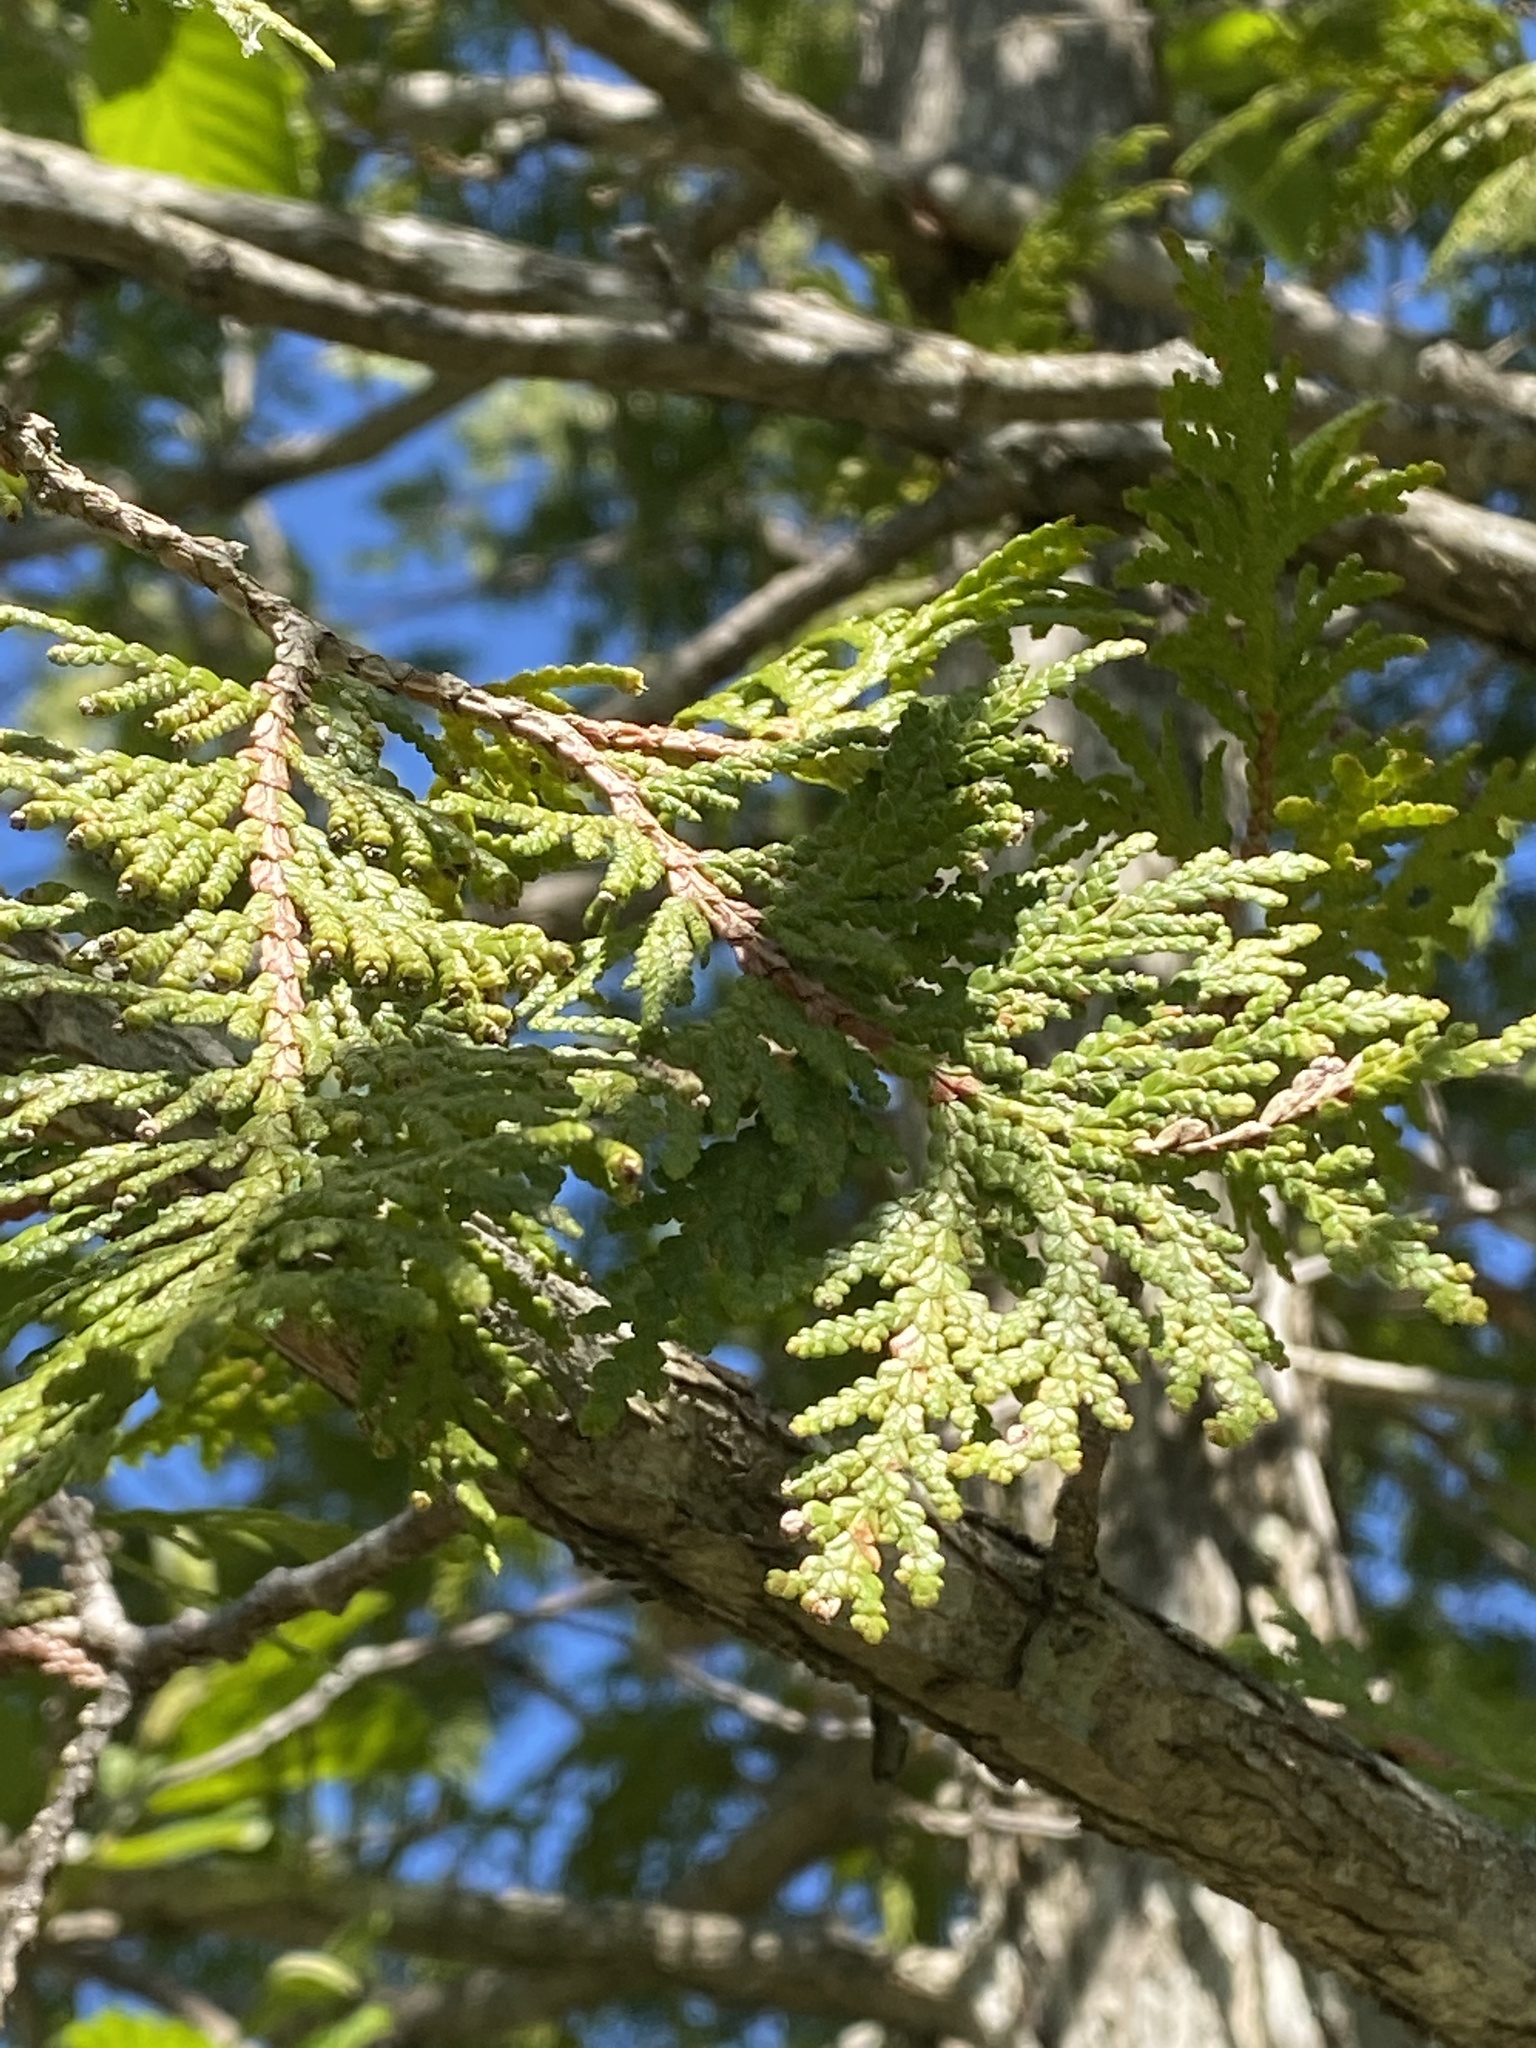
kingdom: Plantae
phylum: Tracheophyta
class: Pinopsida
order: Pinales
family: Cupressaceae
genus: Thuja
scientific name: Thuja occidentalis
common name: Northern white-cedar
